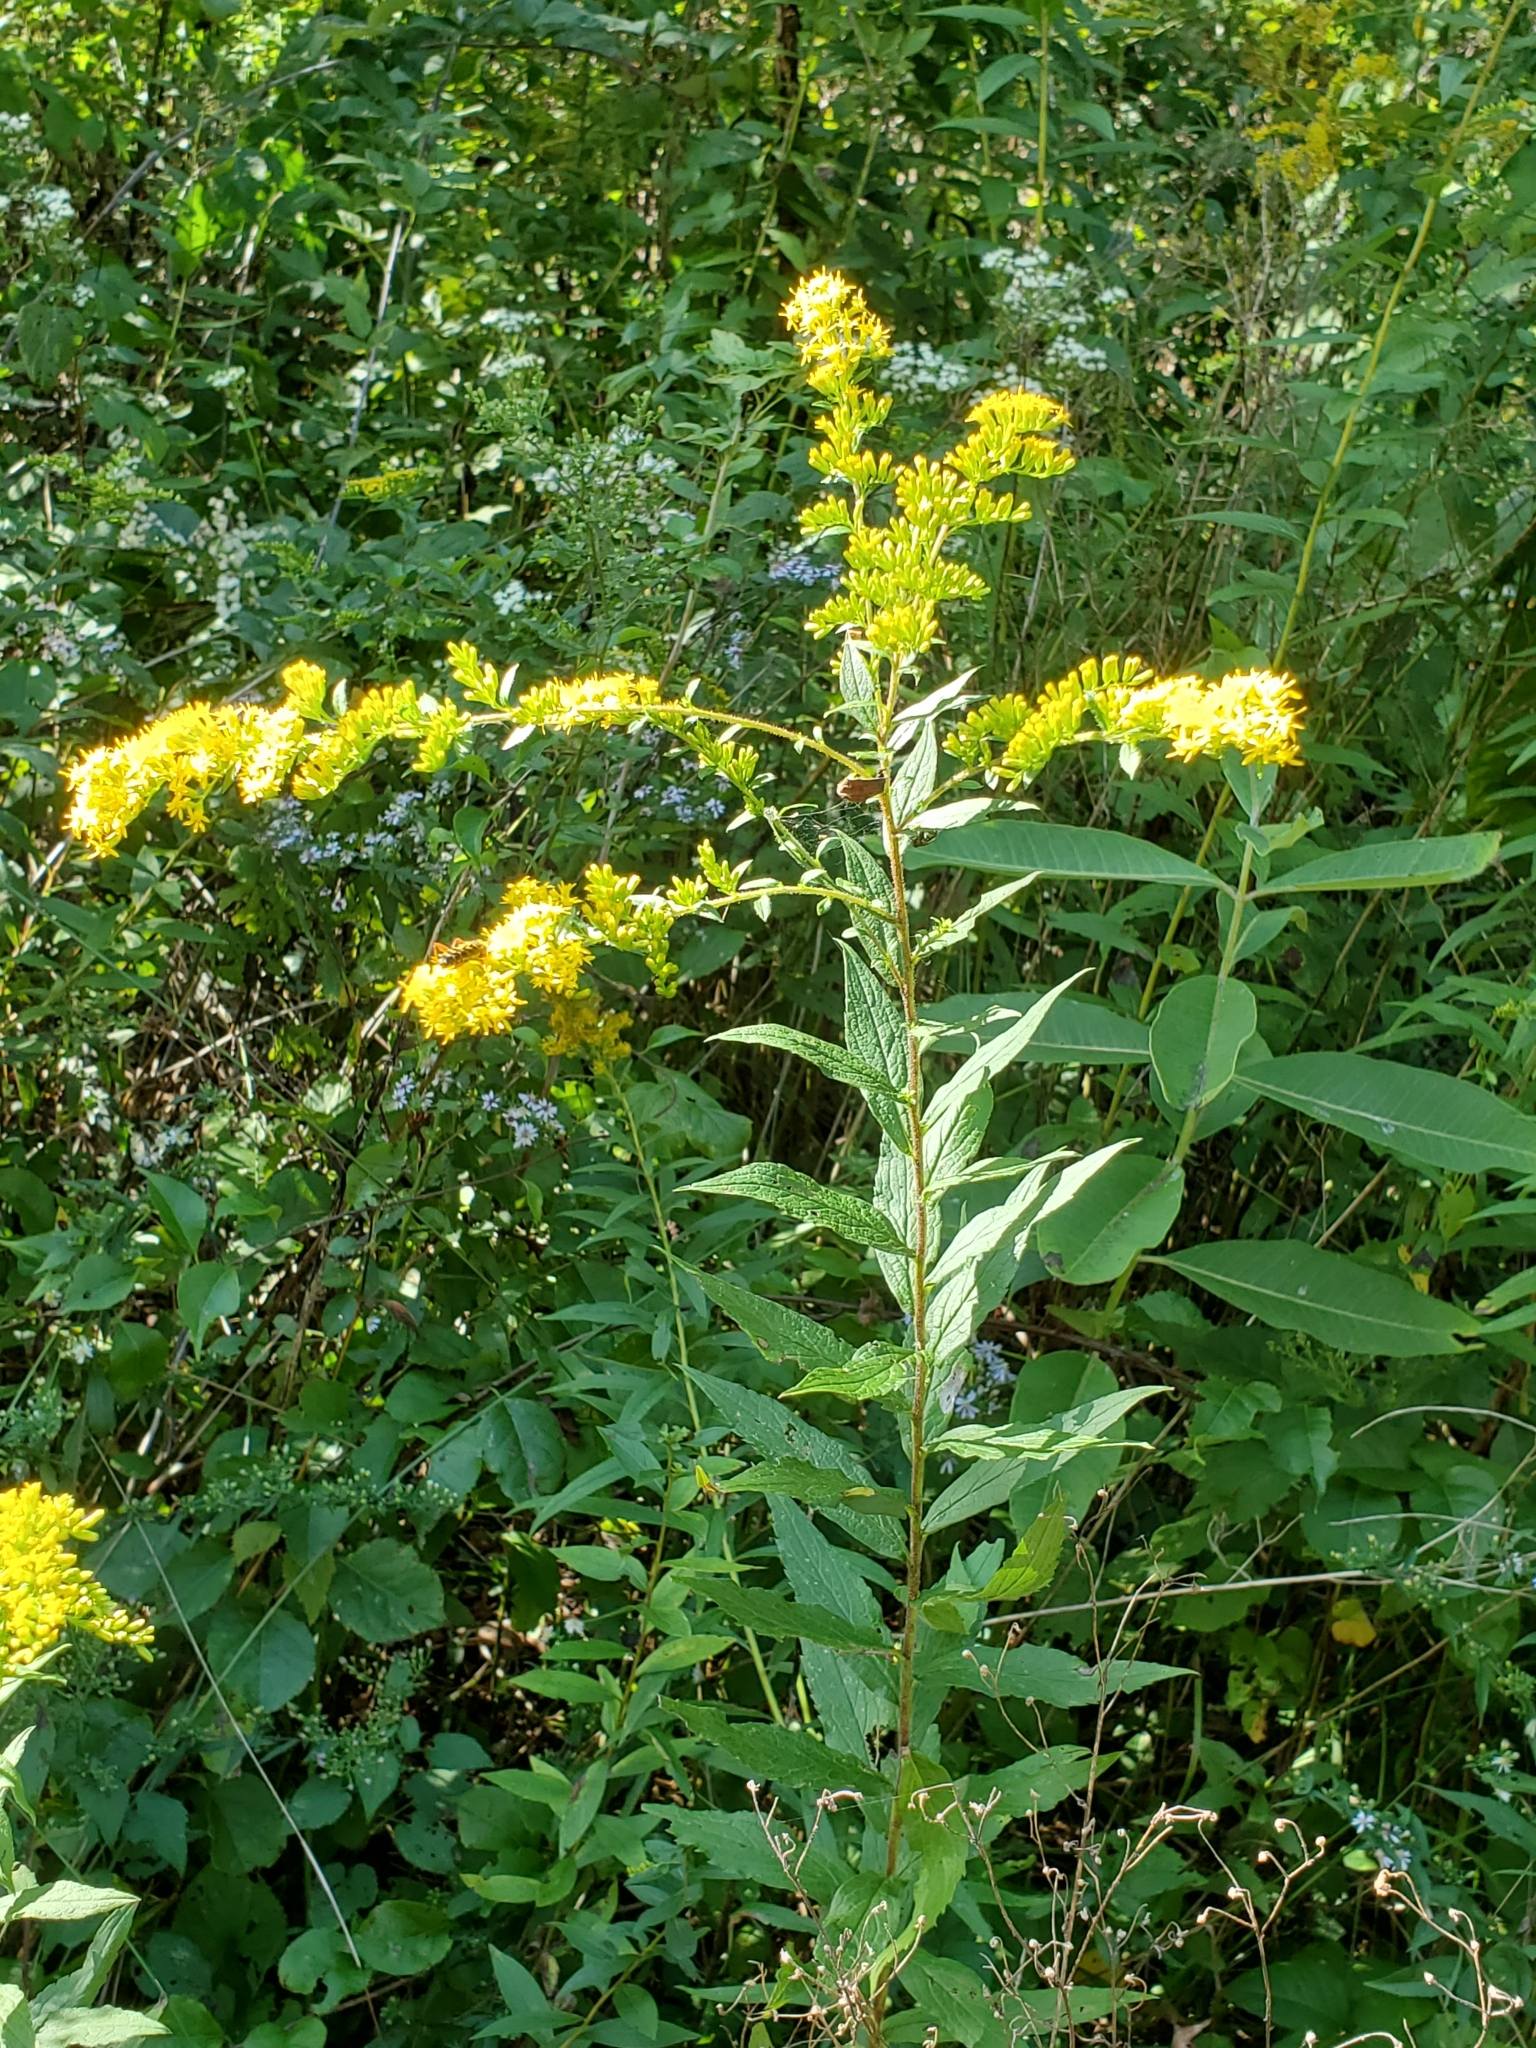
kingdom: Plantae
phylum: Tracheophyta
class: Magnoliopsida
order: Asterales
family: Asteraceae
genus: Solidago
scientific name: Solidago rugosa
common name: Rough-stemmed goldenrod
